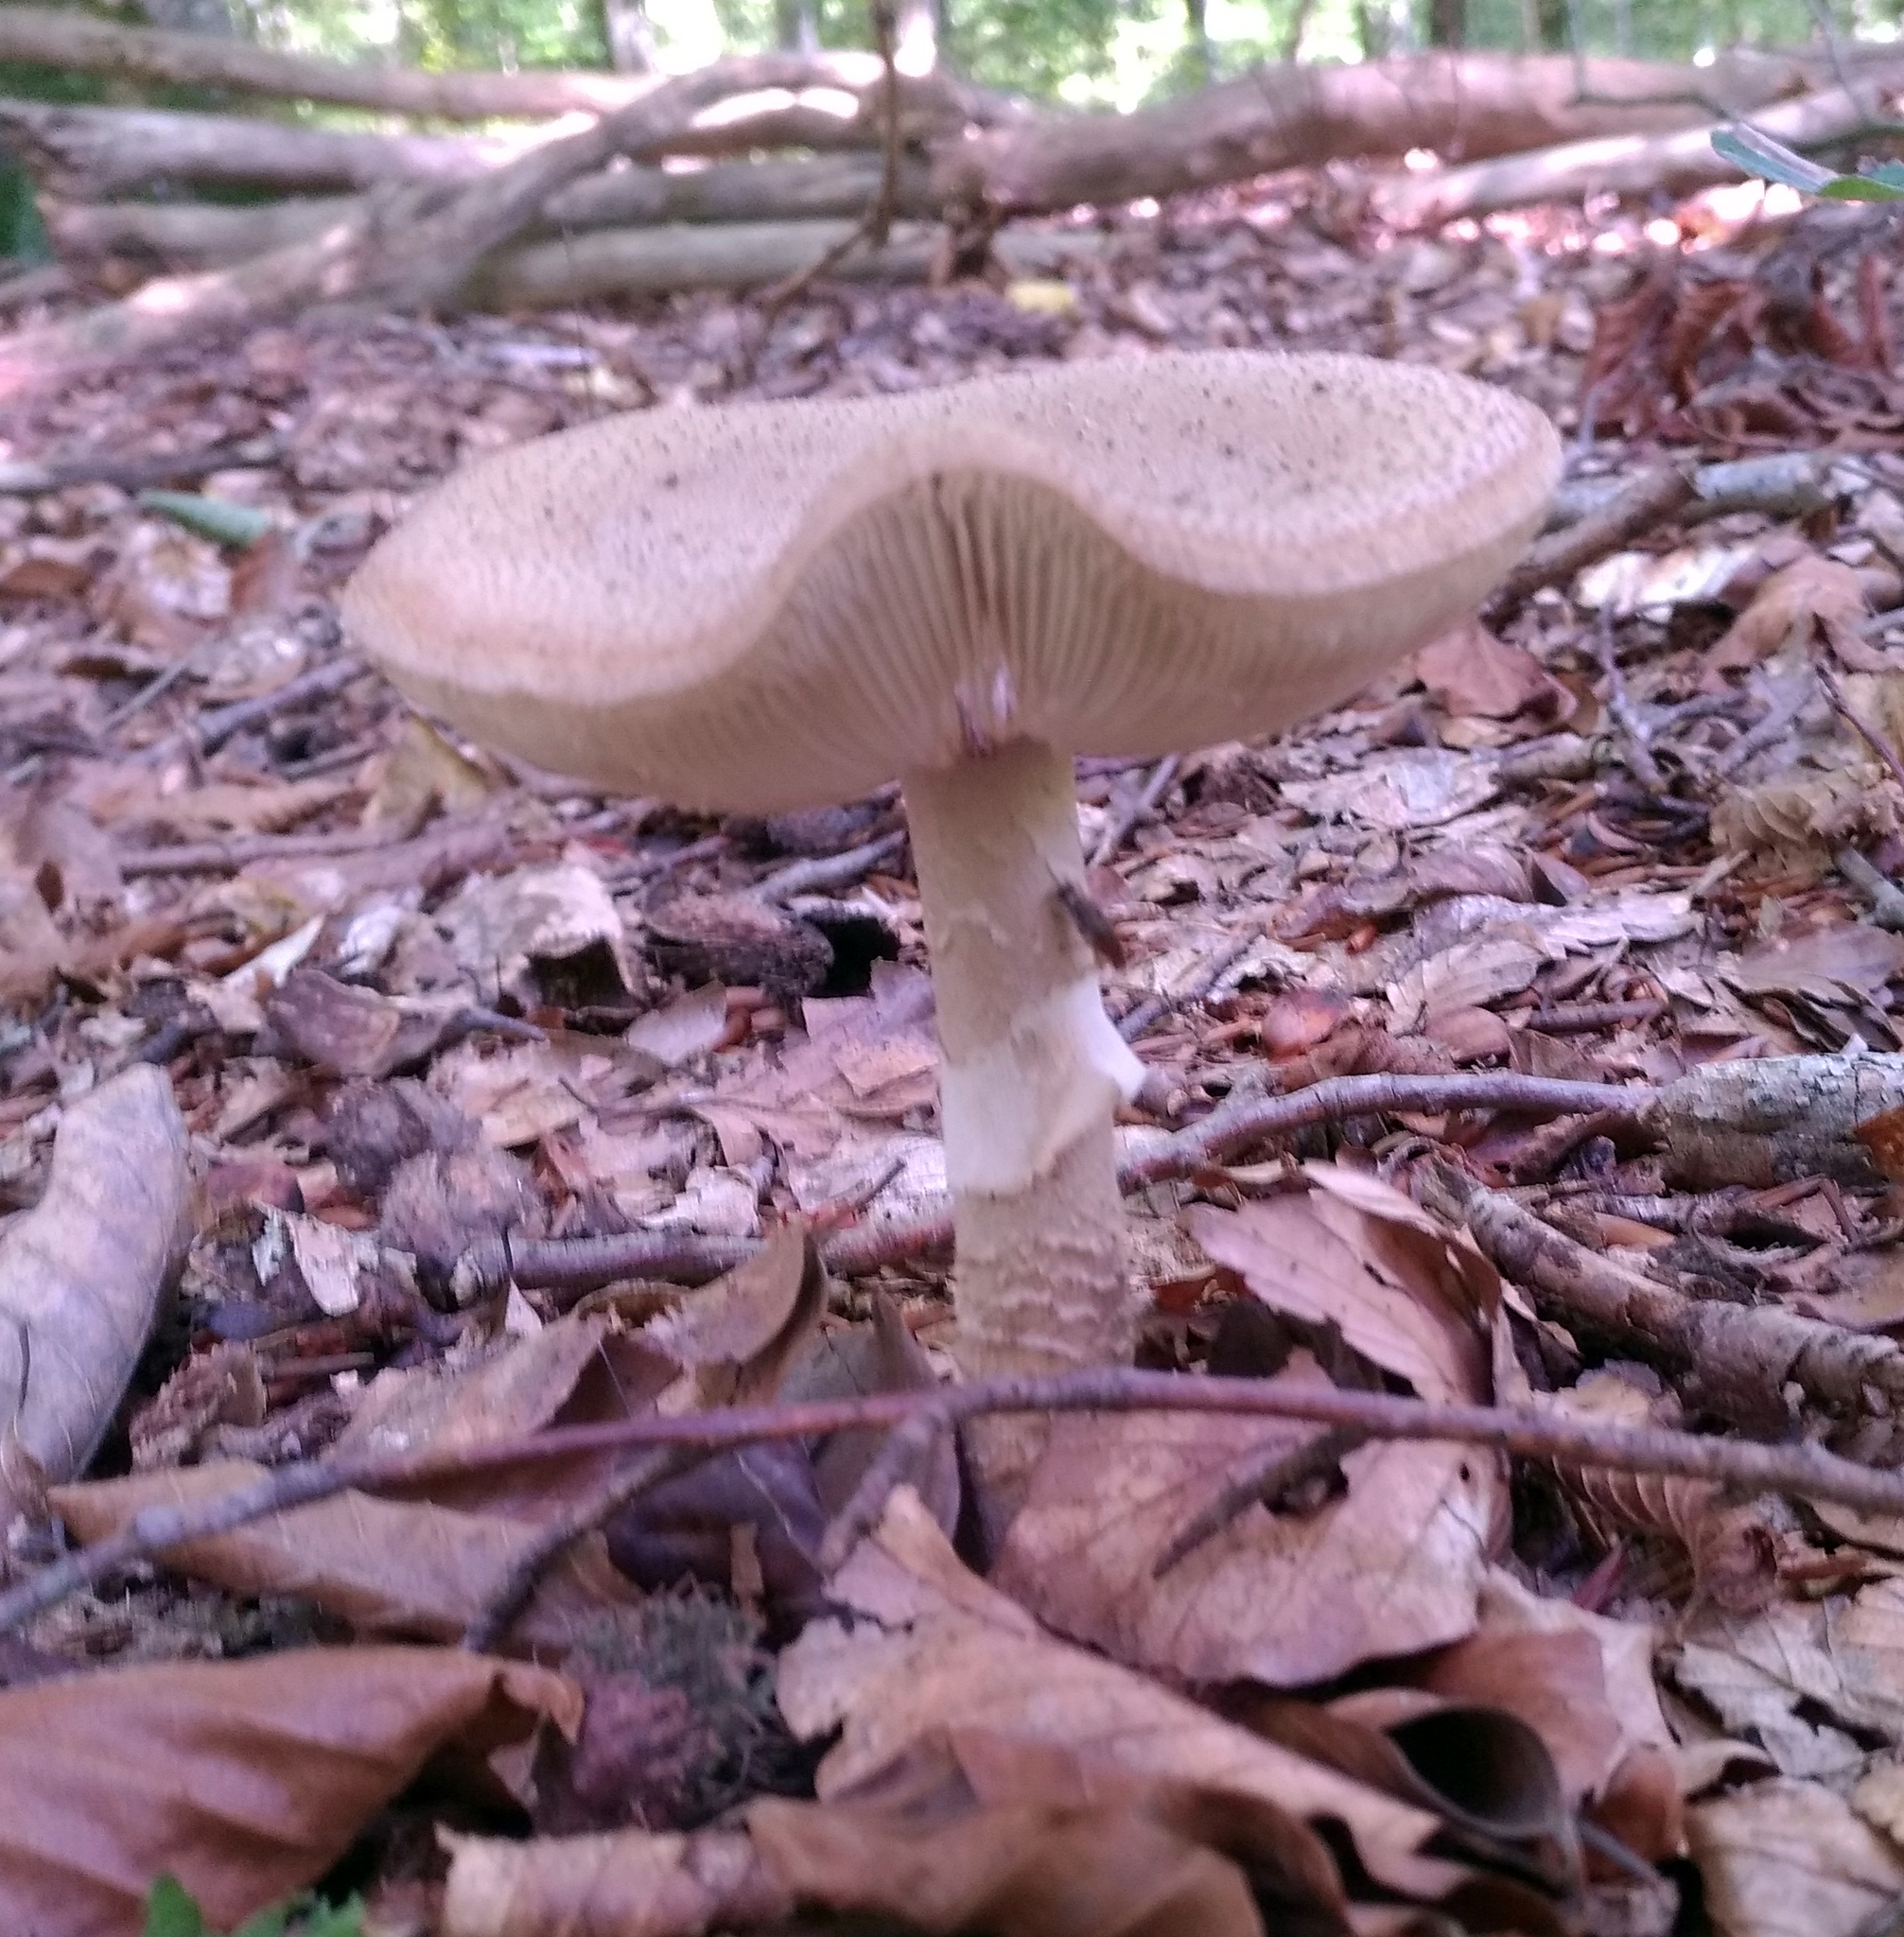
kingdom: Fungi
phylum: Basidiomycota
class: Agaricomycetes
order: Agaricales
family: Amanitaceae
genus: Amanita
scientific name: Amanita rubescens
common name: Blusher
